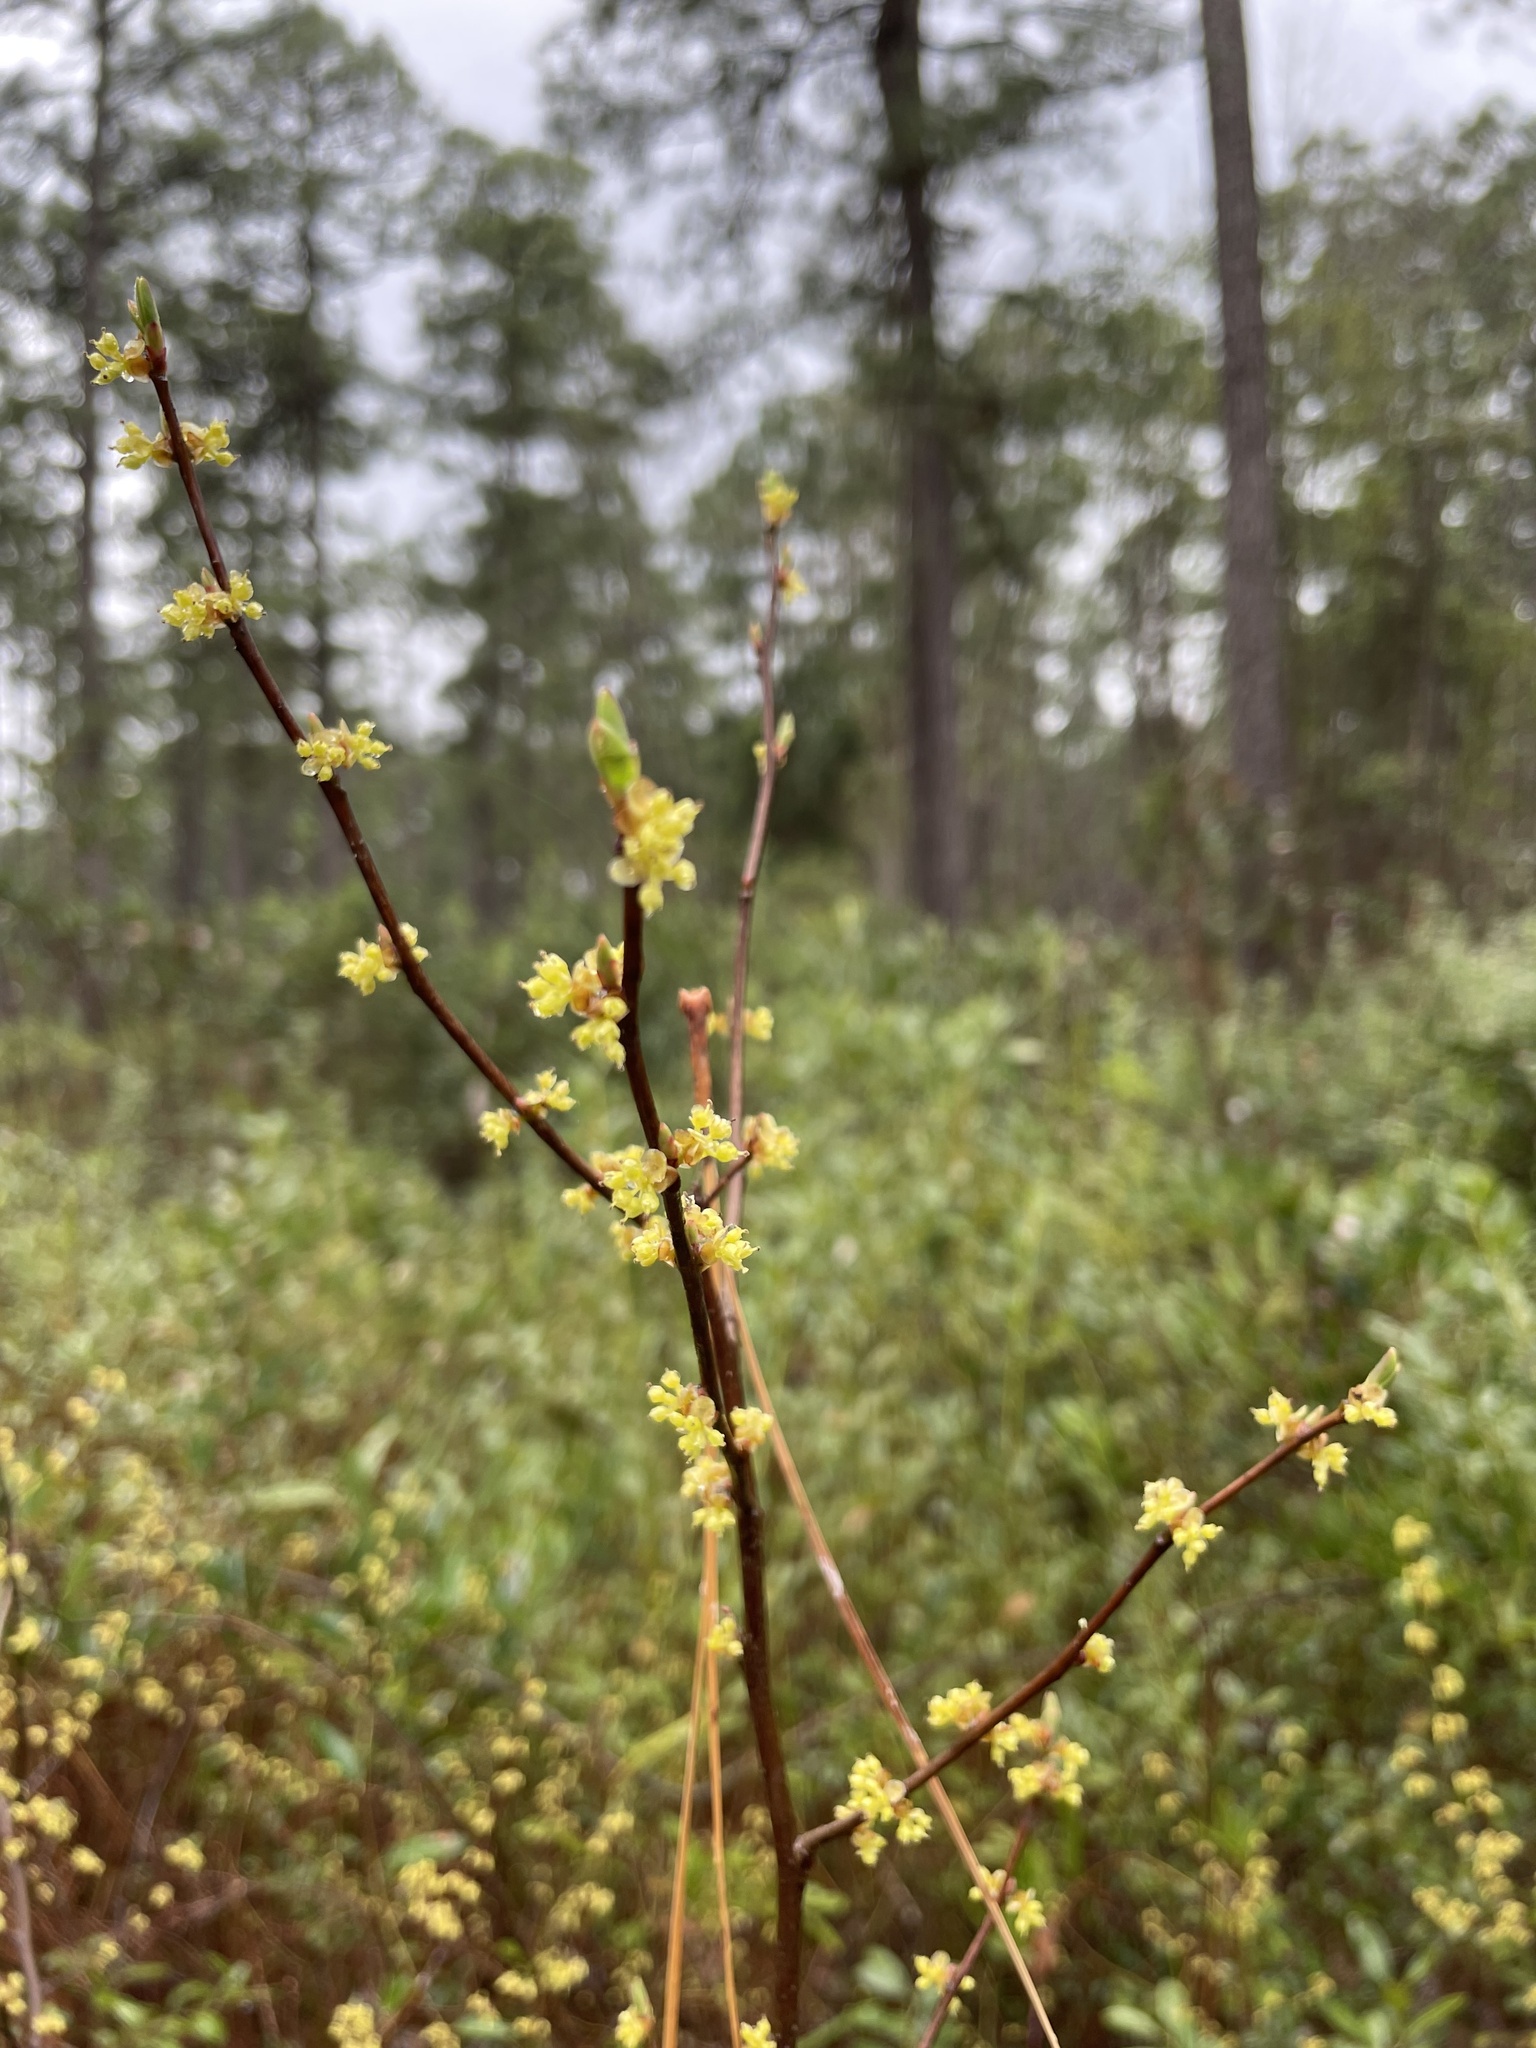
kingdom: Plantae
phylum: Tracheophyta
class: Magnoliopsida
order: Laurales
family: Lauraceae
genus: Lindera
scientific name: Lindera subcoriacea
